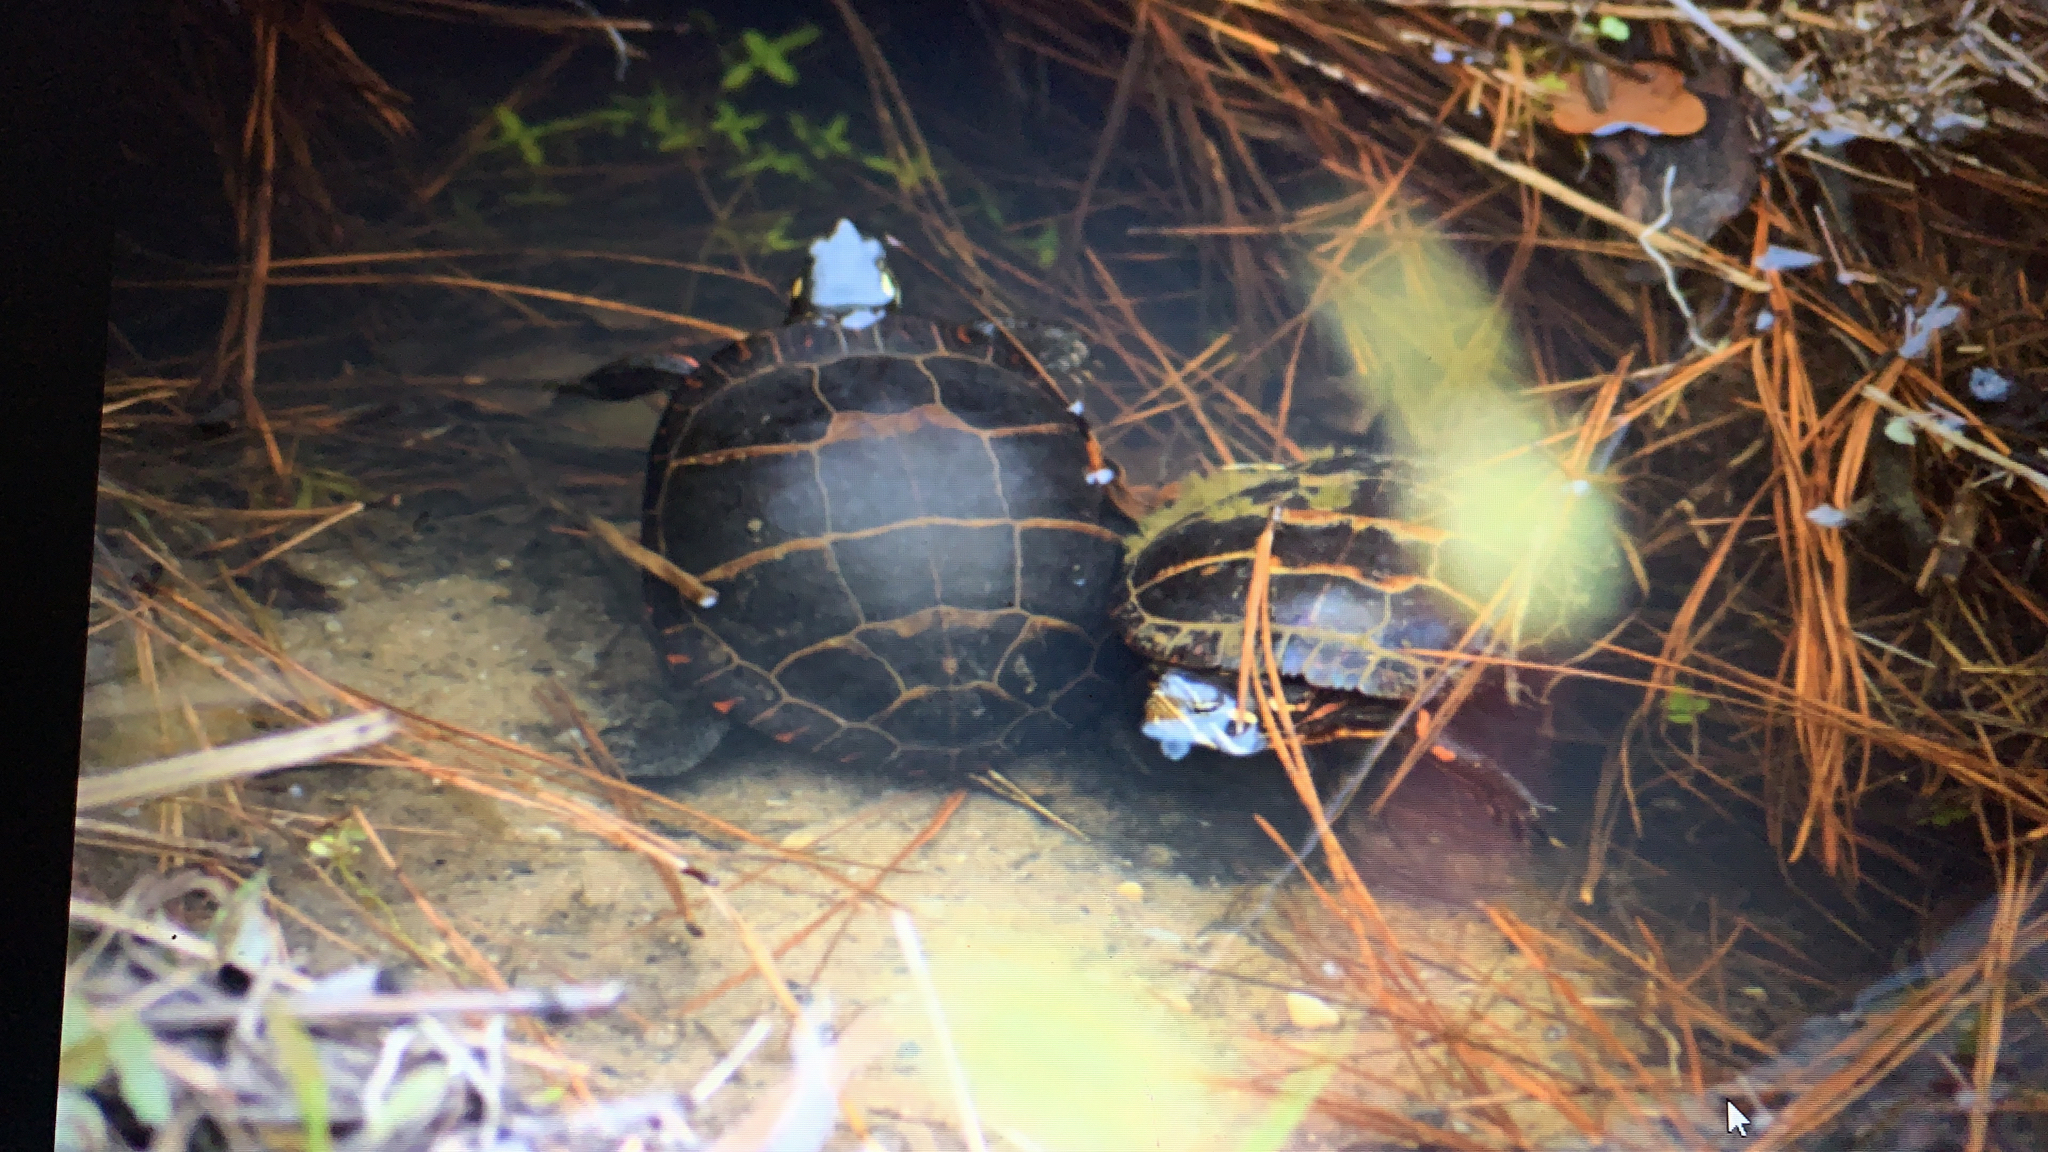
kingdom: Animalia
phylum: Chordata
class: Testudines
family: Emydidae
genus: Chrysemys
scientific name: Chrysemys picta
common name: Painted turtle
